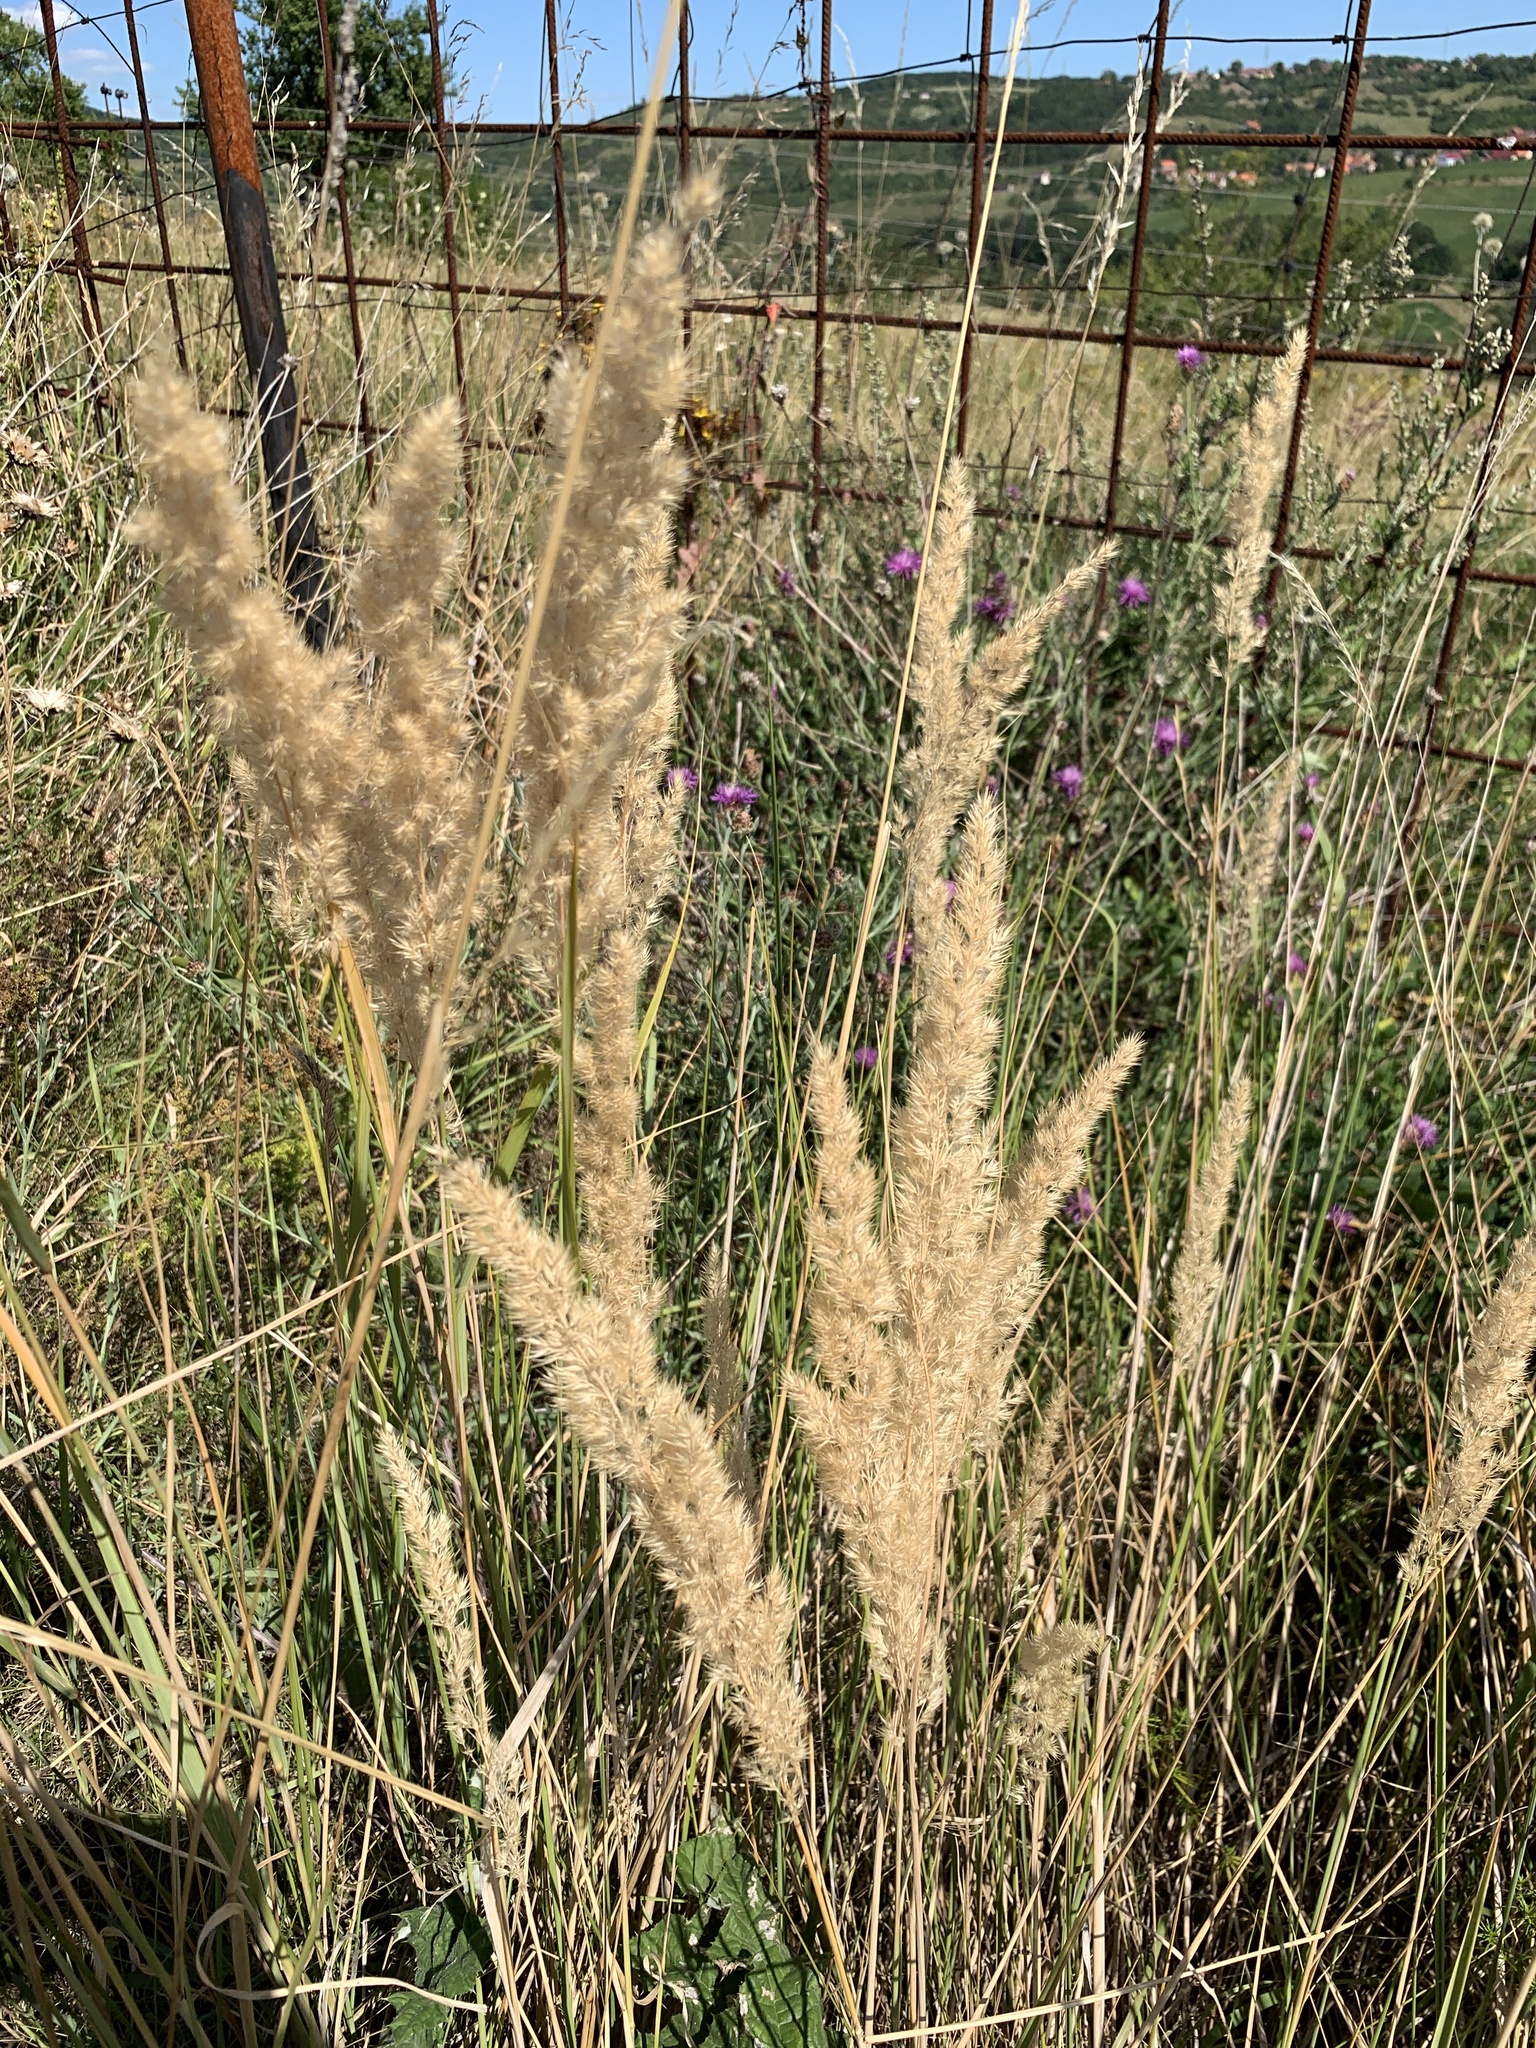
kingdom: Plantae
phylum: Tracheophyta
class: Liliopsida
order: Poales
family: Poaceae
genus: Calamagrostis
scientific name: Calamagrostis epigejos
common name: Wood small-reed
